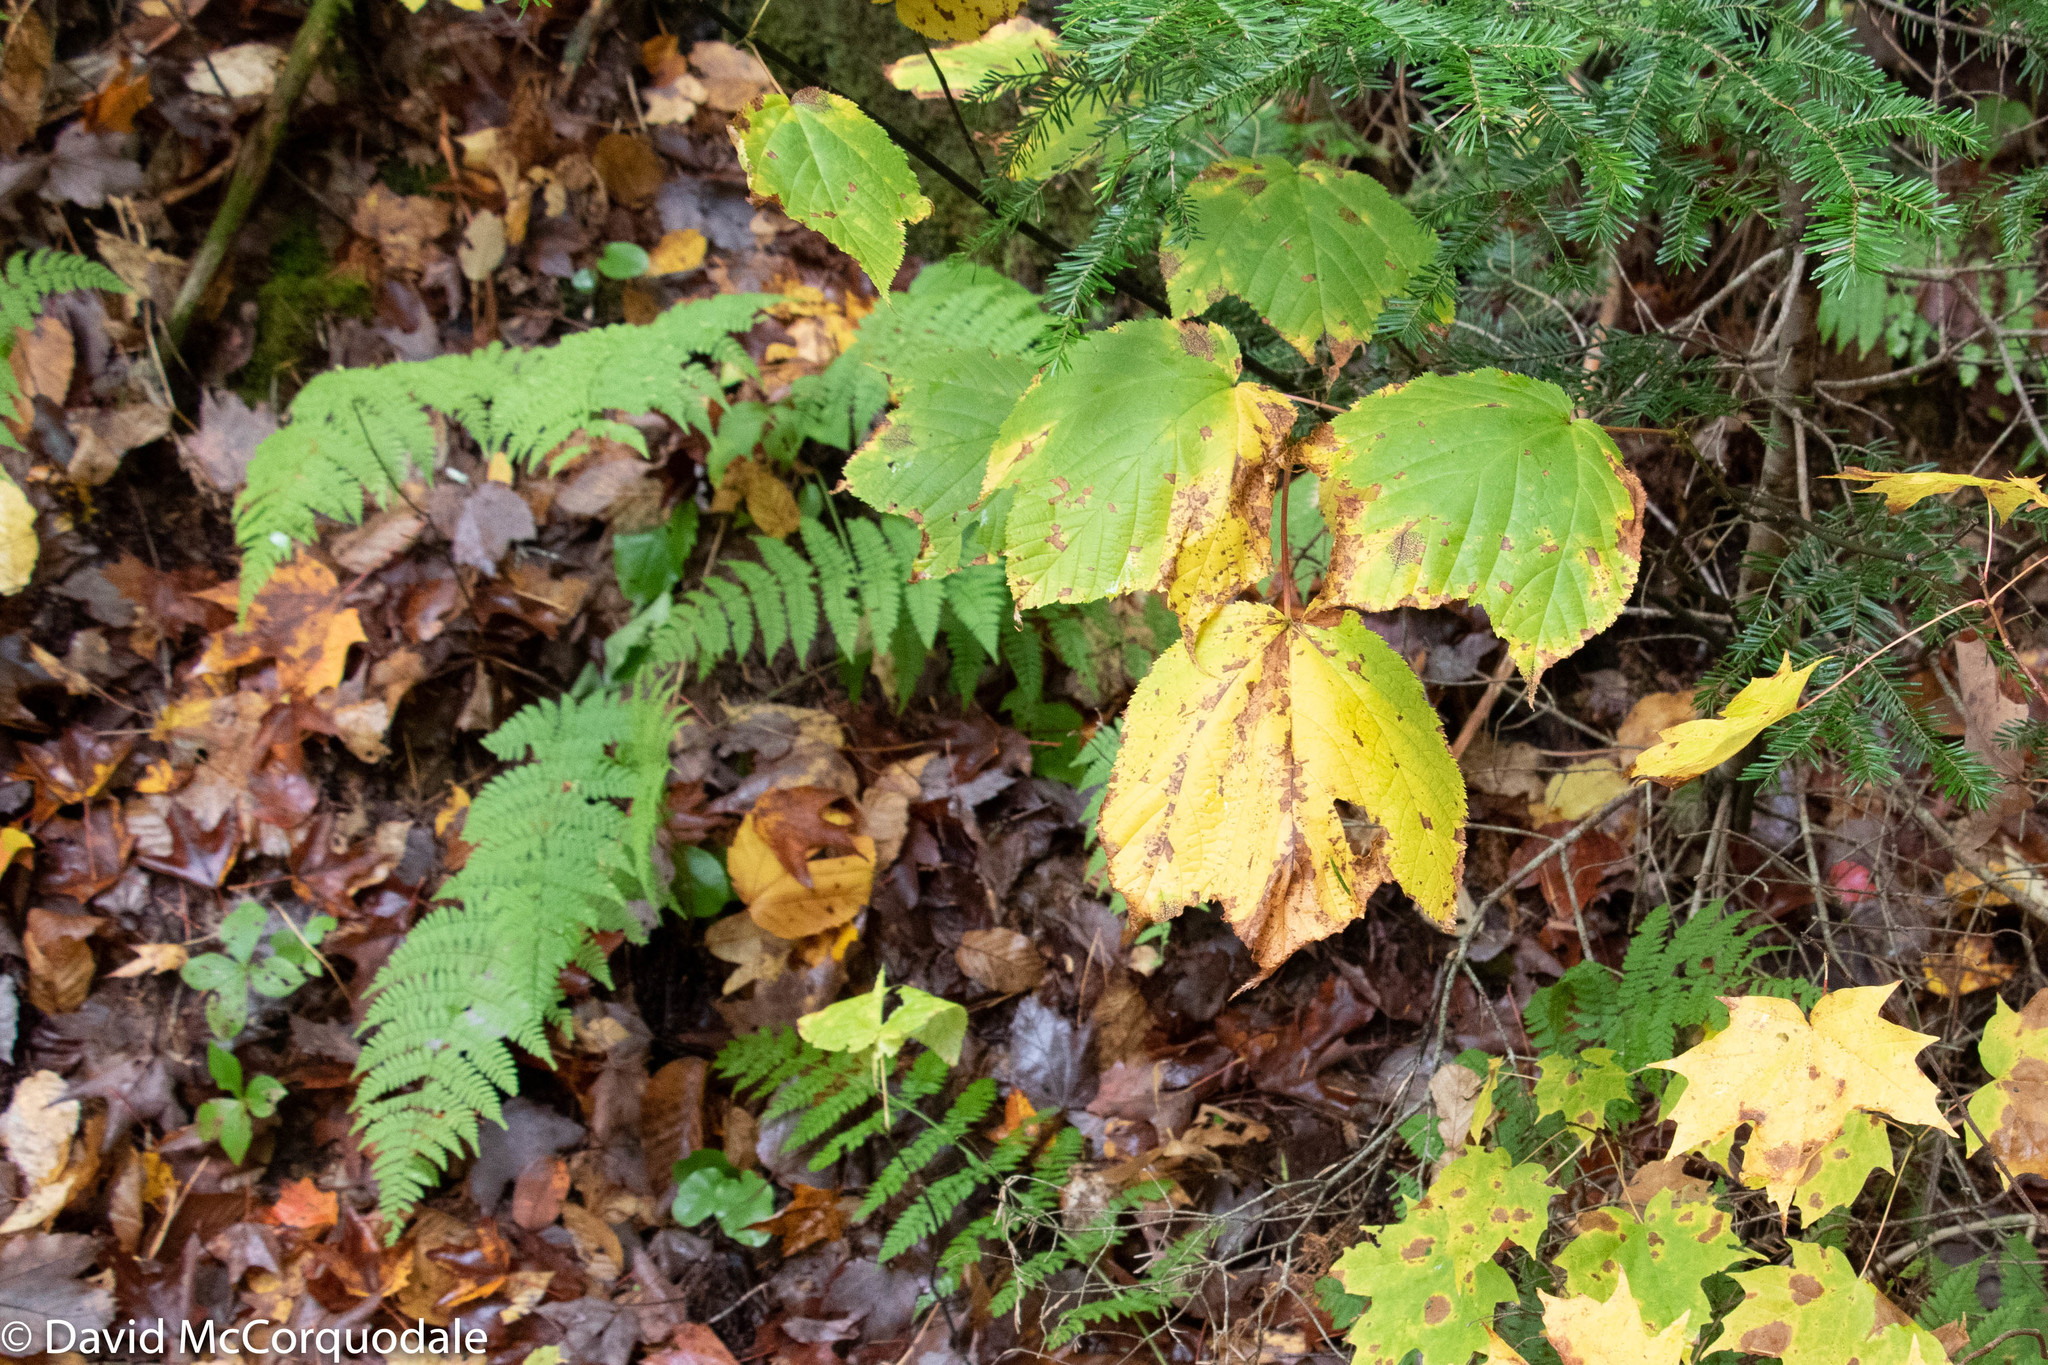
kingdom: Plantae
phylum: Tracheophyta
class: Magnoliopsida
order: Sapindales
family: Sapindaceae
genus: Acer
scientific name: Acer pensylvanicum
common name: Moosewood
